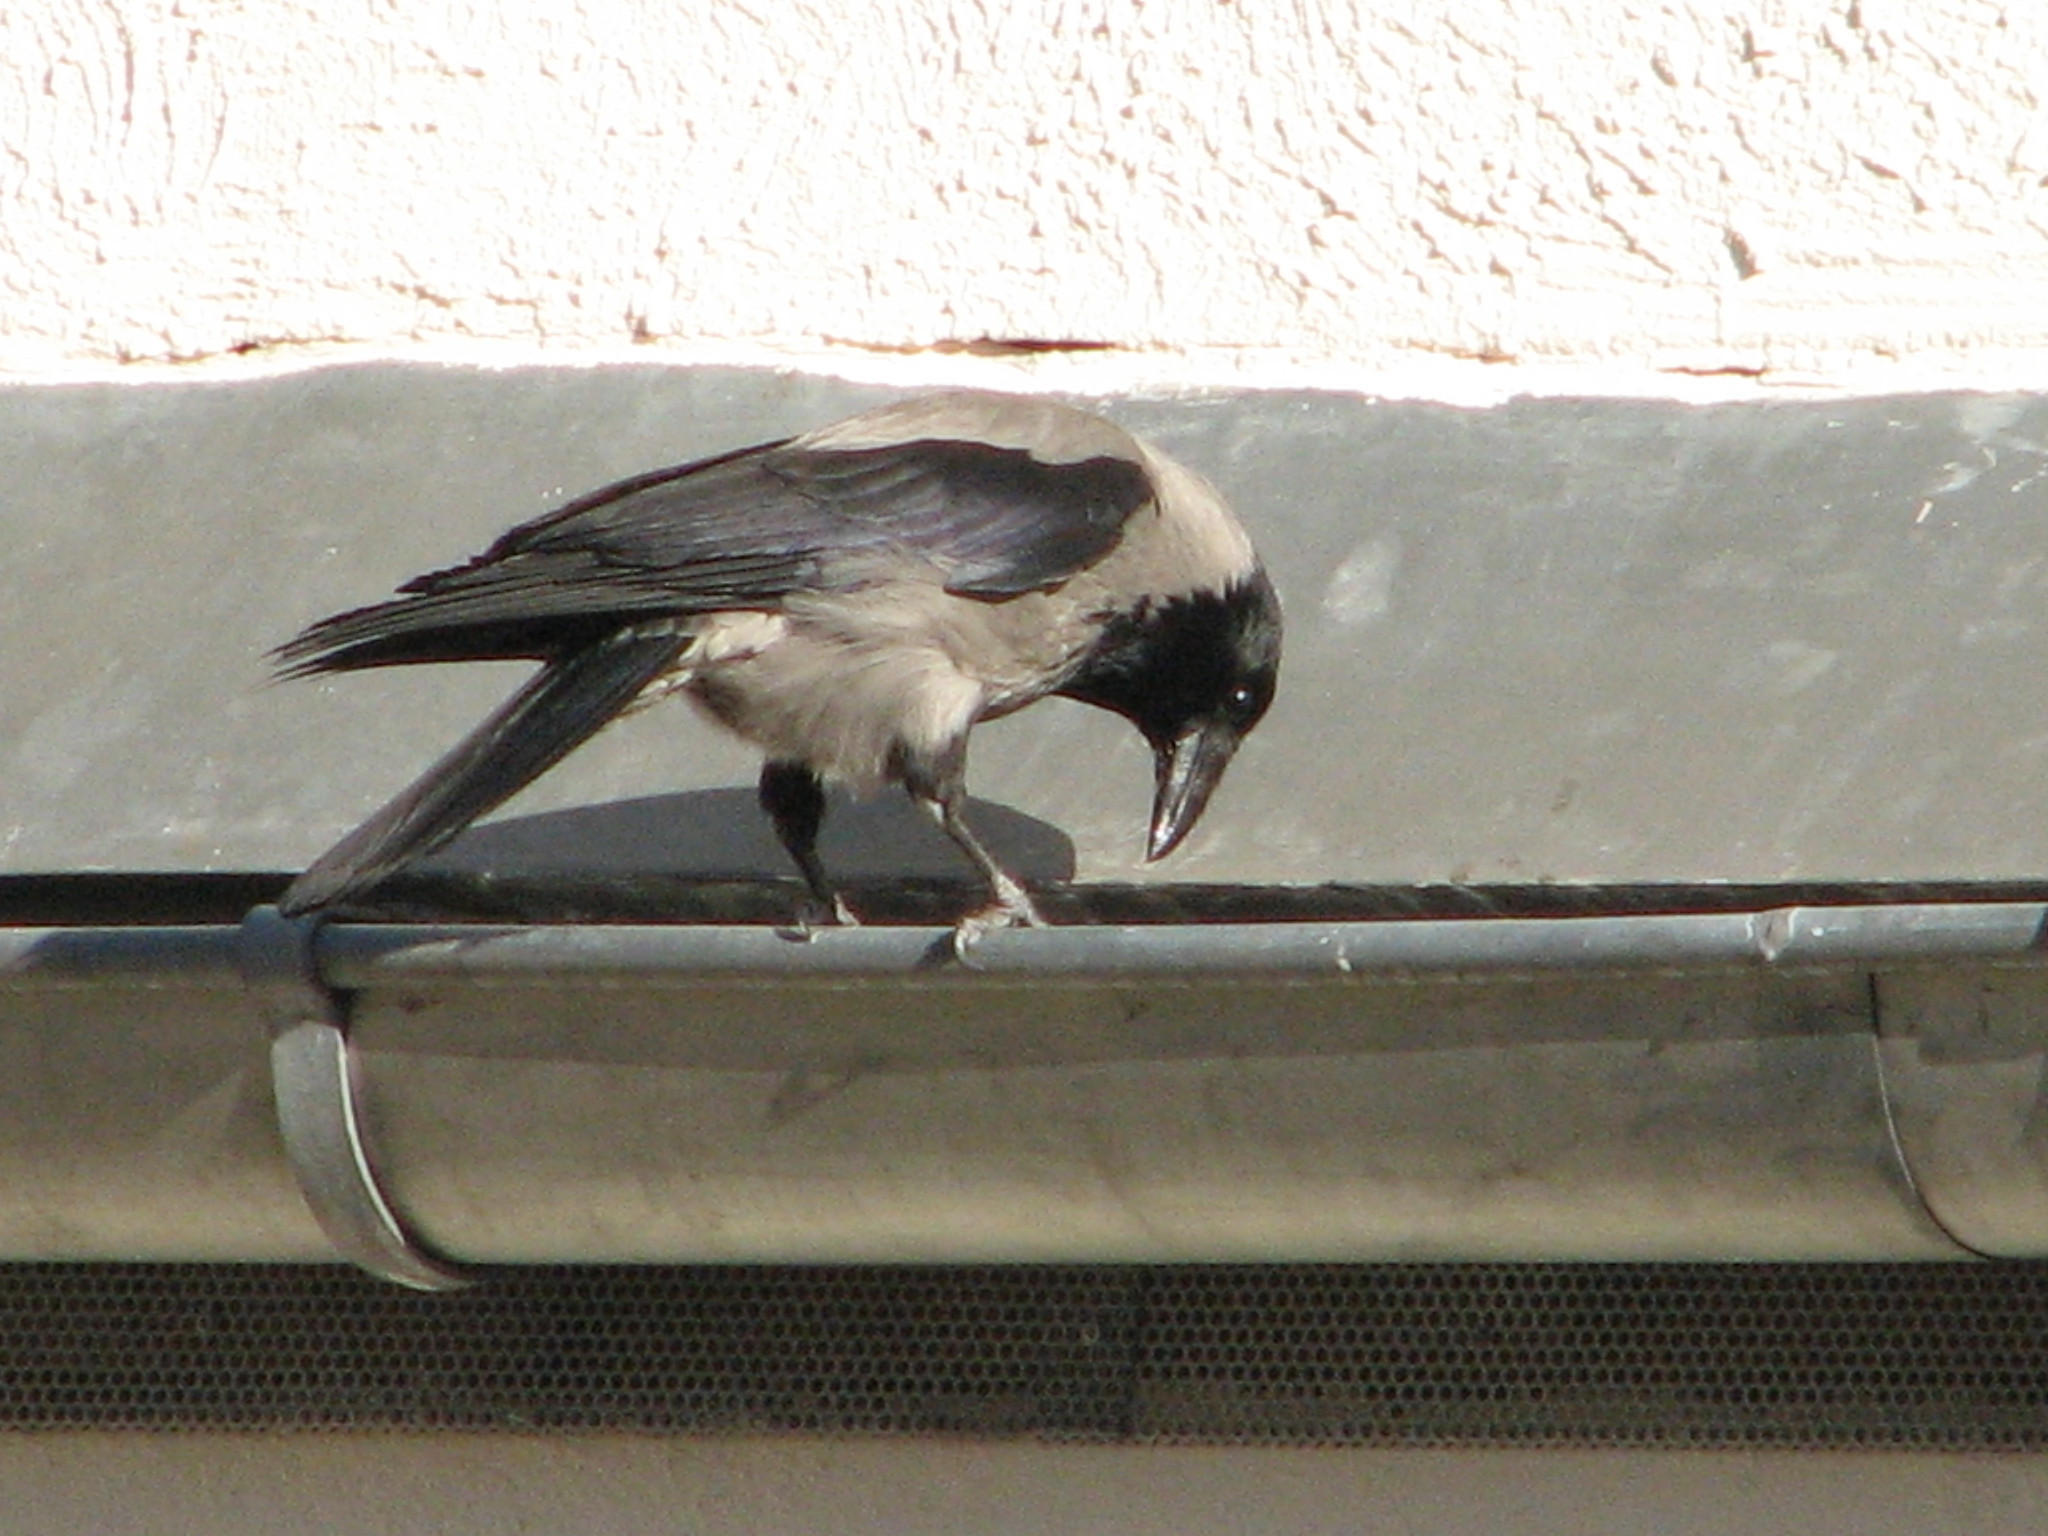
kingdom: Animalia
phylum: Chordata
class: Aves
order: Passeriformes
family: Corvidae
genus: Corvus
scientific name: Corvus cornix
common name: Hooded crow
